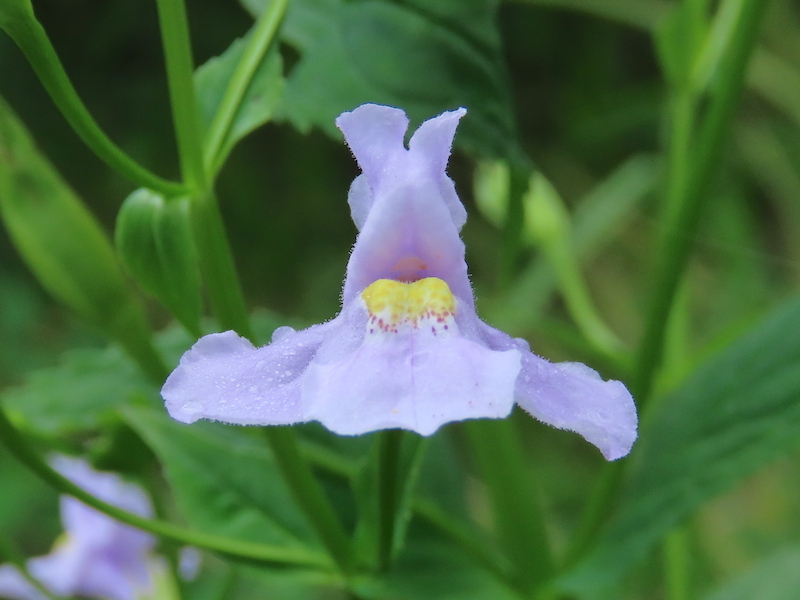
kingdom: Plantae
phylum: Tracheophyta
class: Magnoliopsida
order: Lamiales
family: Phrymaceae
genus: Mimulus
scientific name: Mimulus ringens
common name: Allegheny monkeyflower
